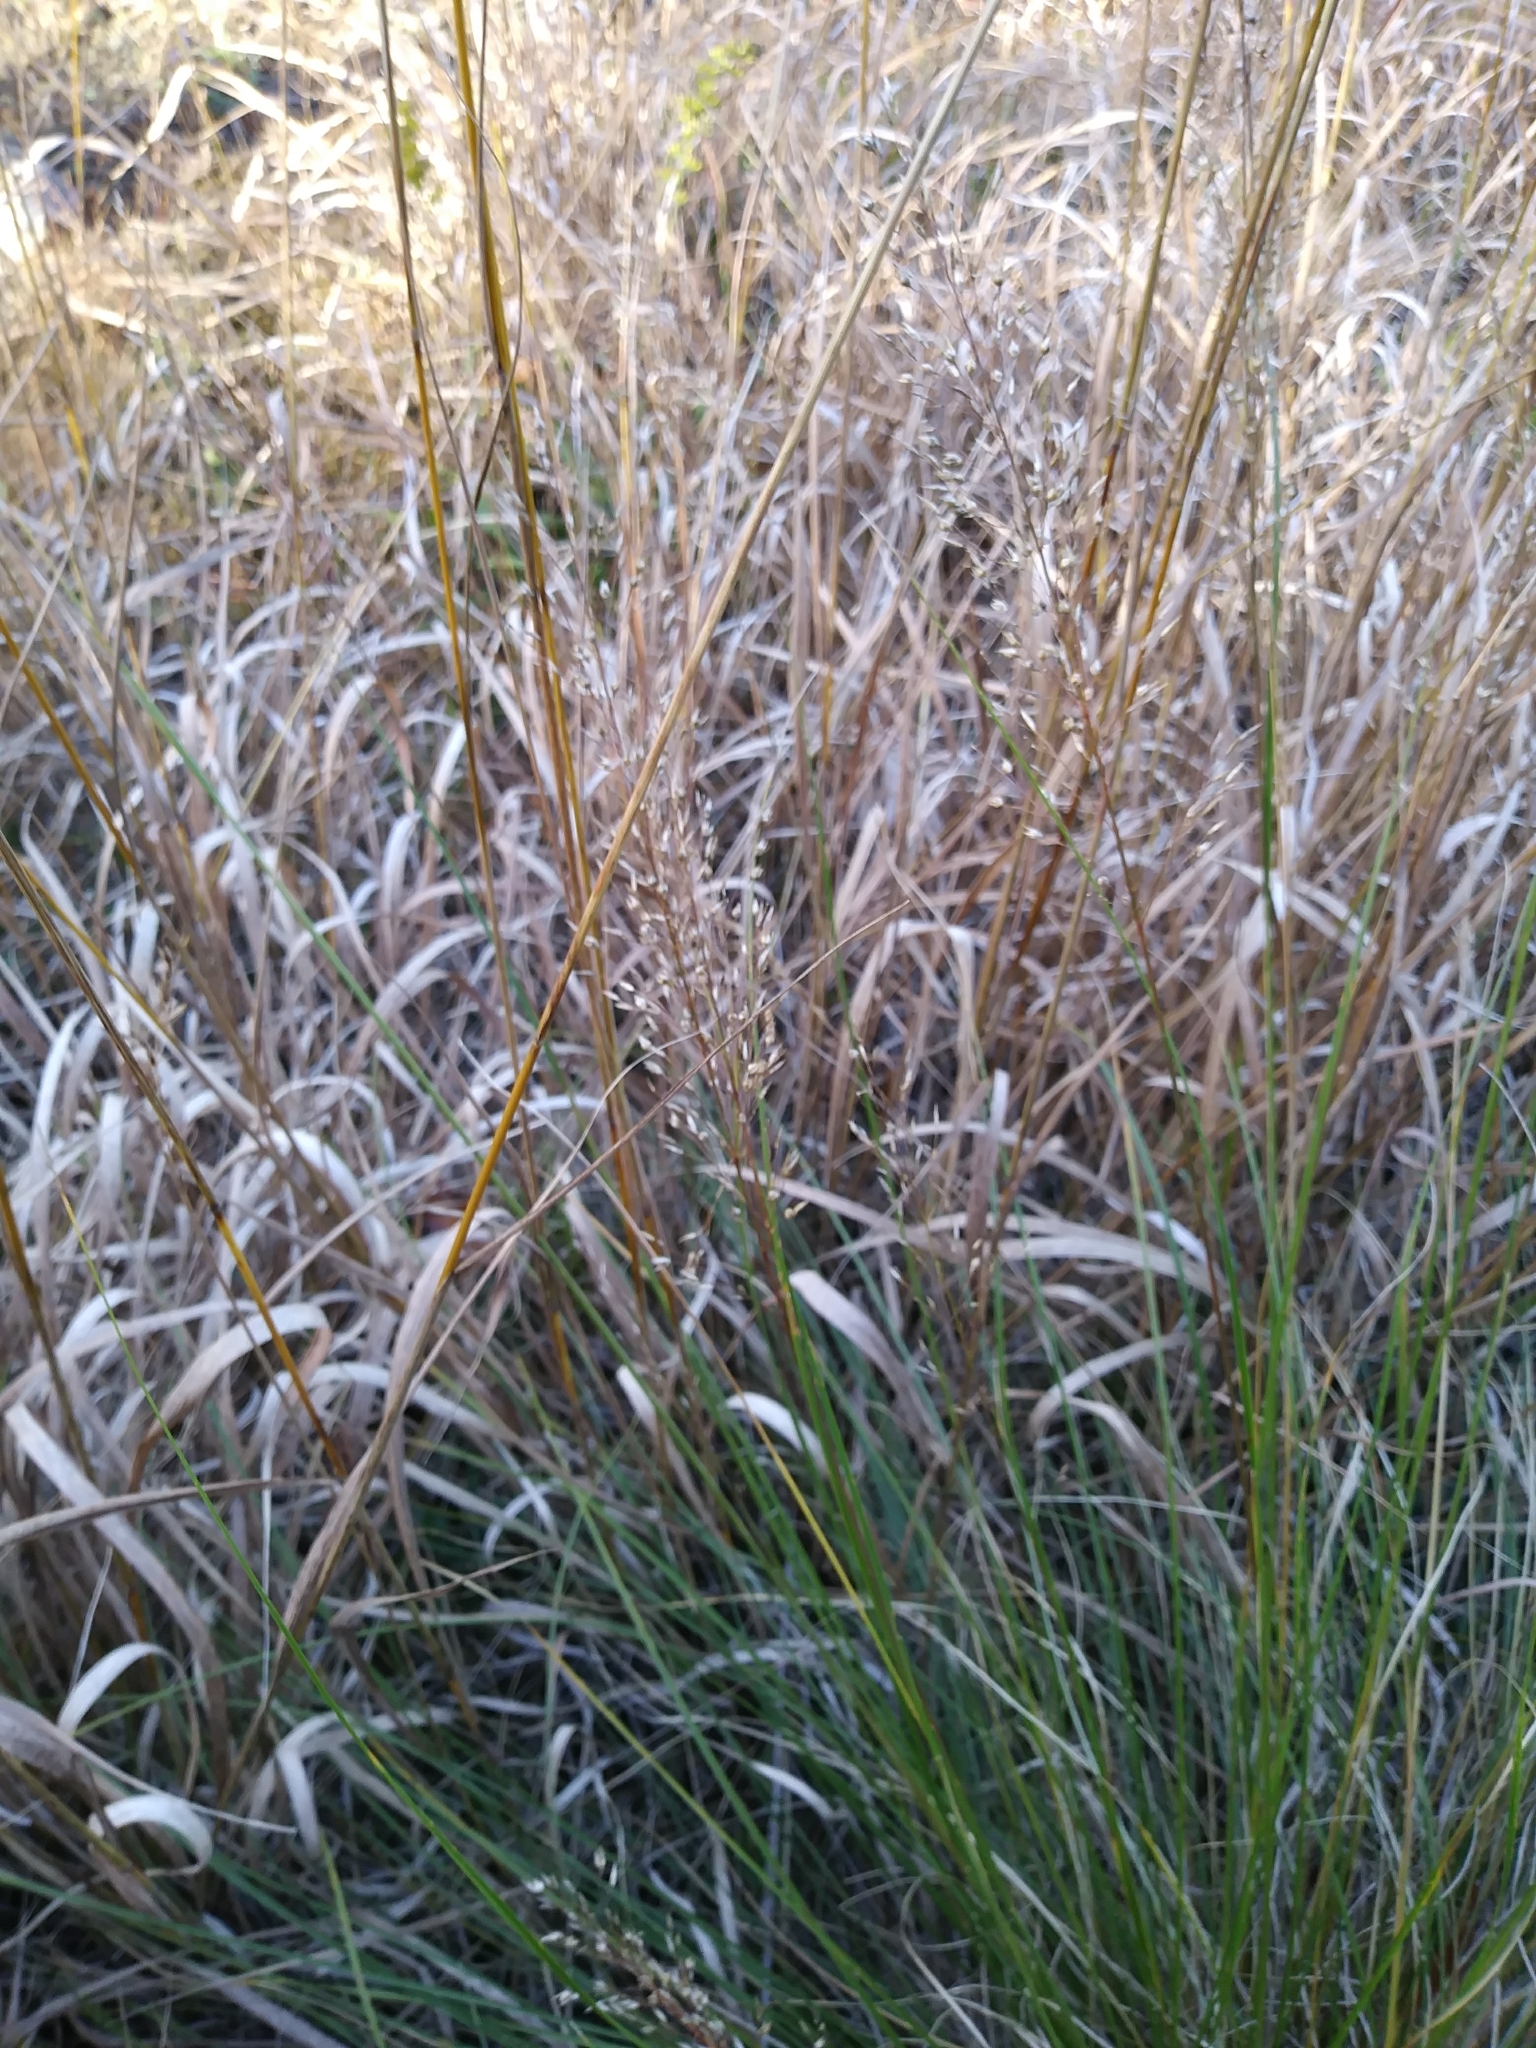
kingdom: Plantae
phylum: Tracheophyta
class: Liliopsida
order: Poales
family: Poaceae
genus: Sporobolus
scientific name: Sporobolus heterolepis
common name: Prairie dropseed
